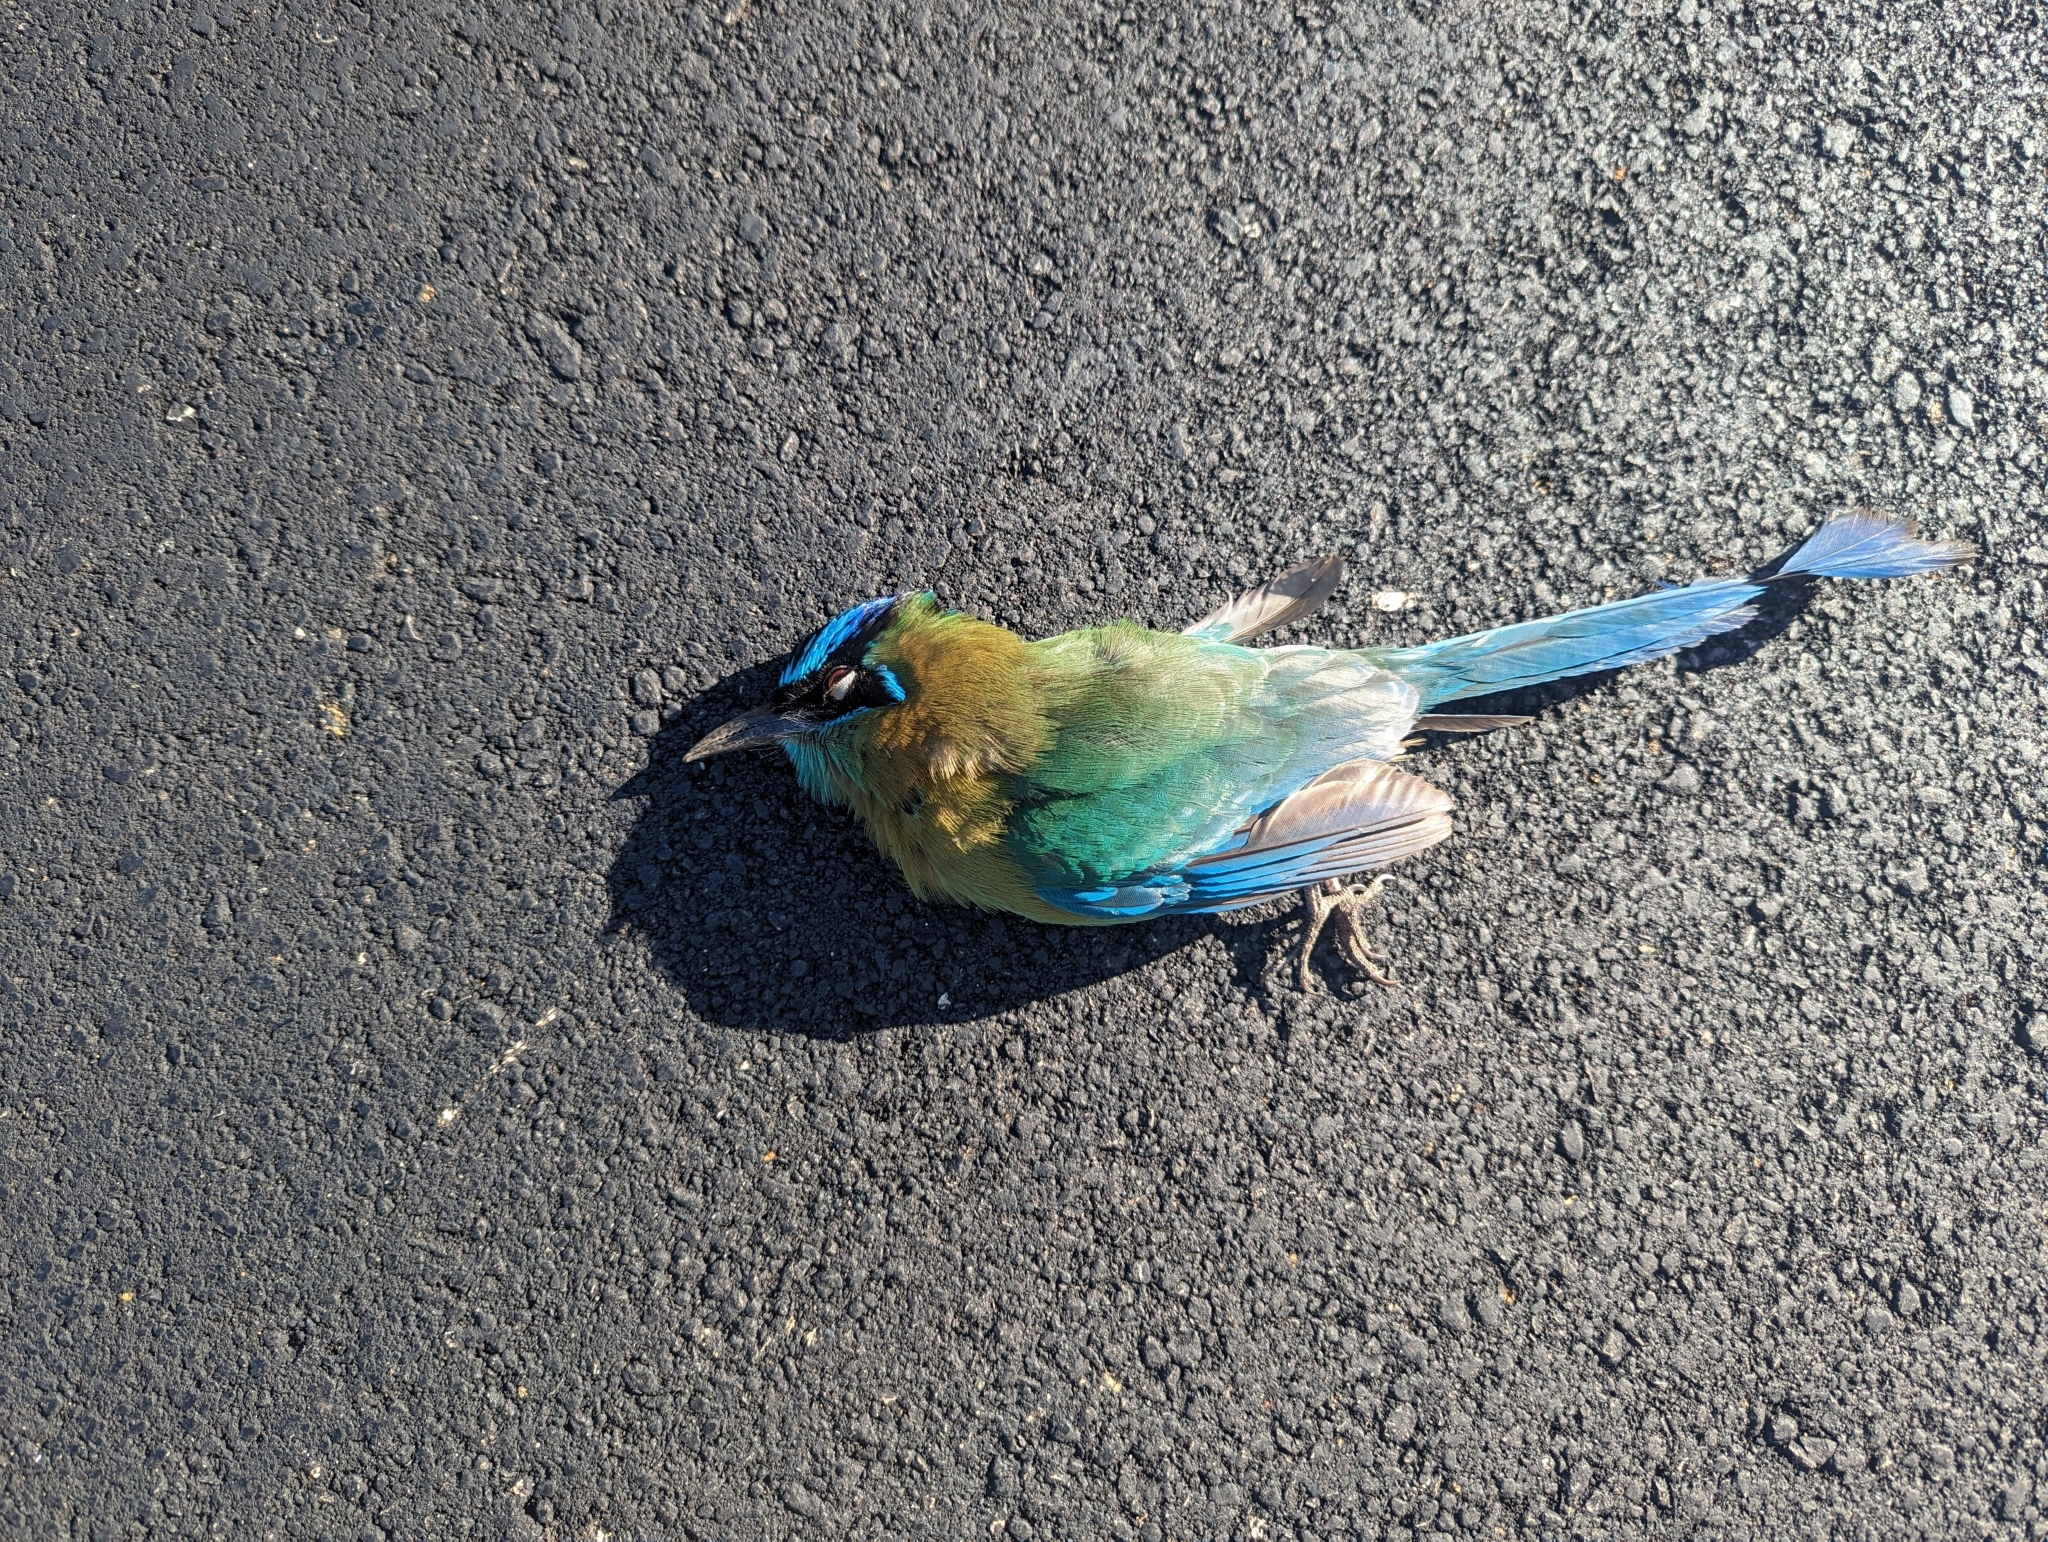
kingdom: Animalia
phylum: Chordata
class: Aves
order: Coraciiformes
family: Momotidae
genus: Momotus
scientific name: Momotus lessonii
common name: Lesson's motmot
